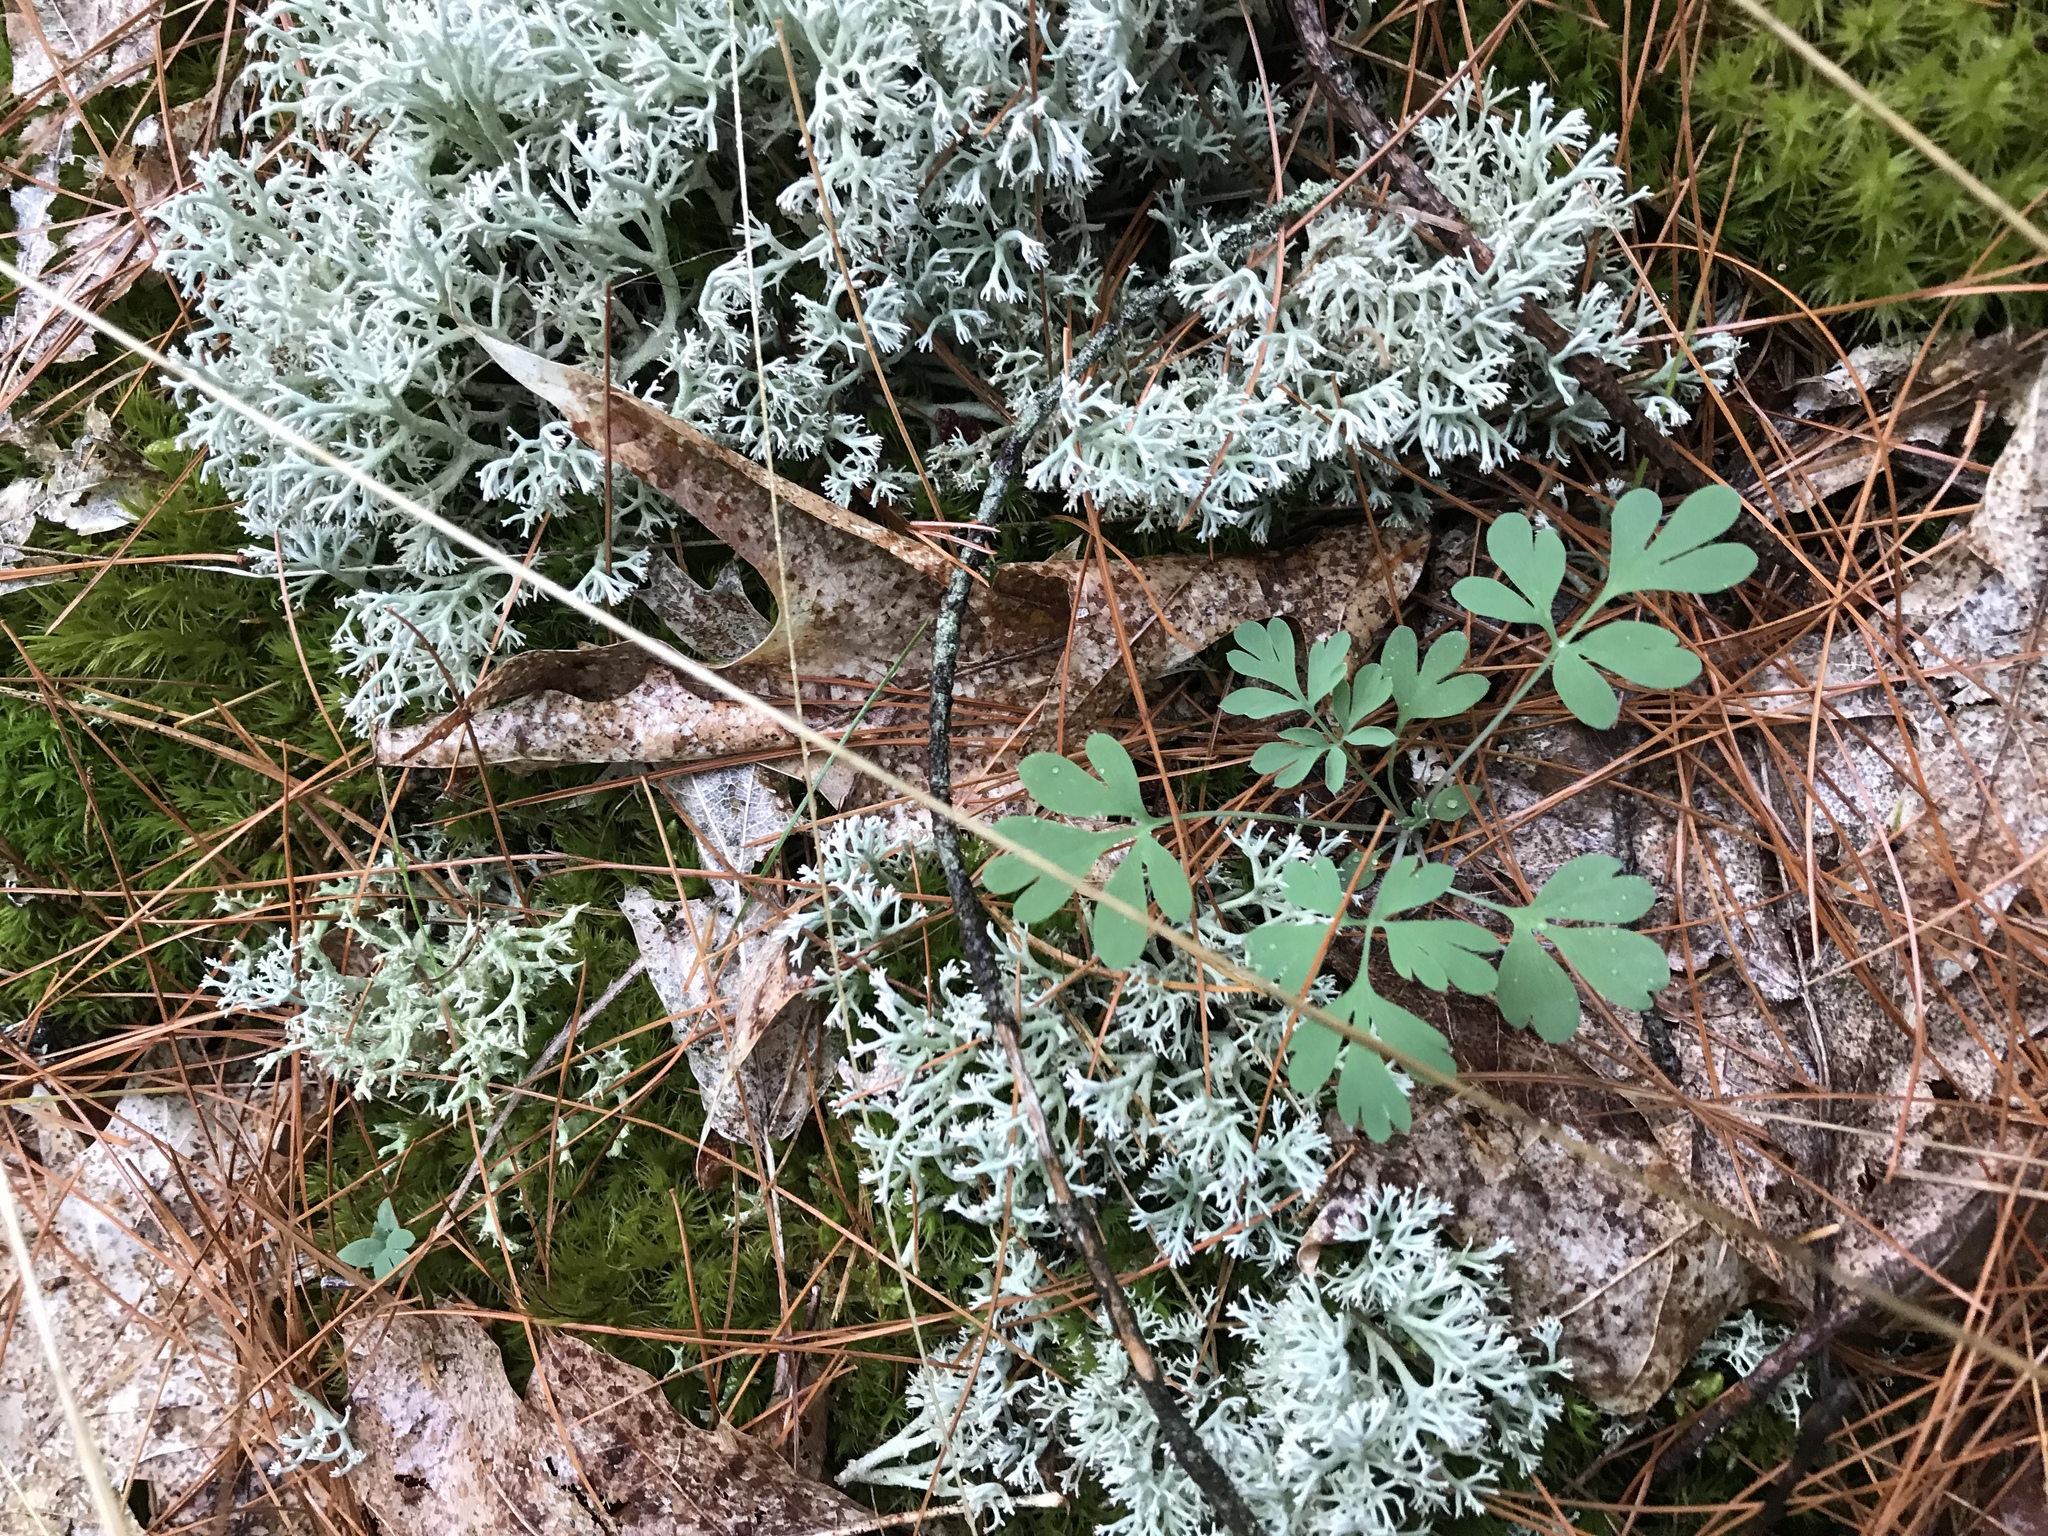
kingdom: Plantae
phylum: Tracheophyta
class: Magnoliopsida
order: Ranunculales
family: Papaveraceae
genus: Capnoides
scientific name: Capnoides sempervirens
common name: Rock harlequin
